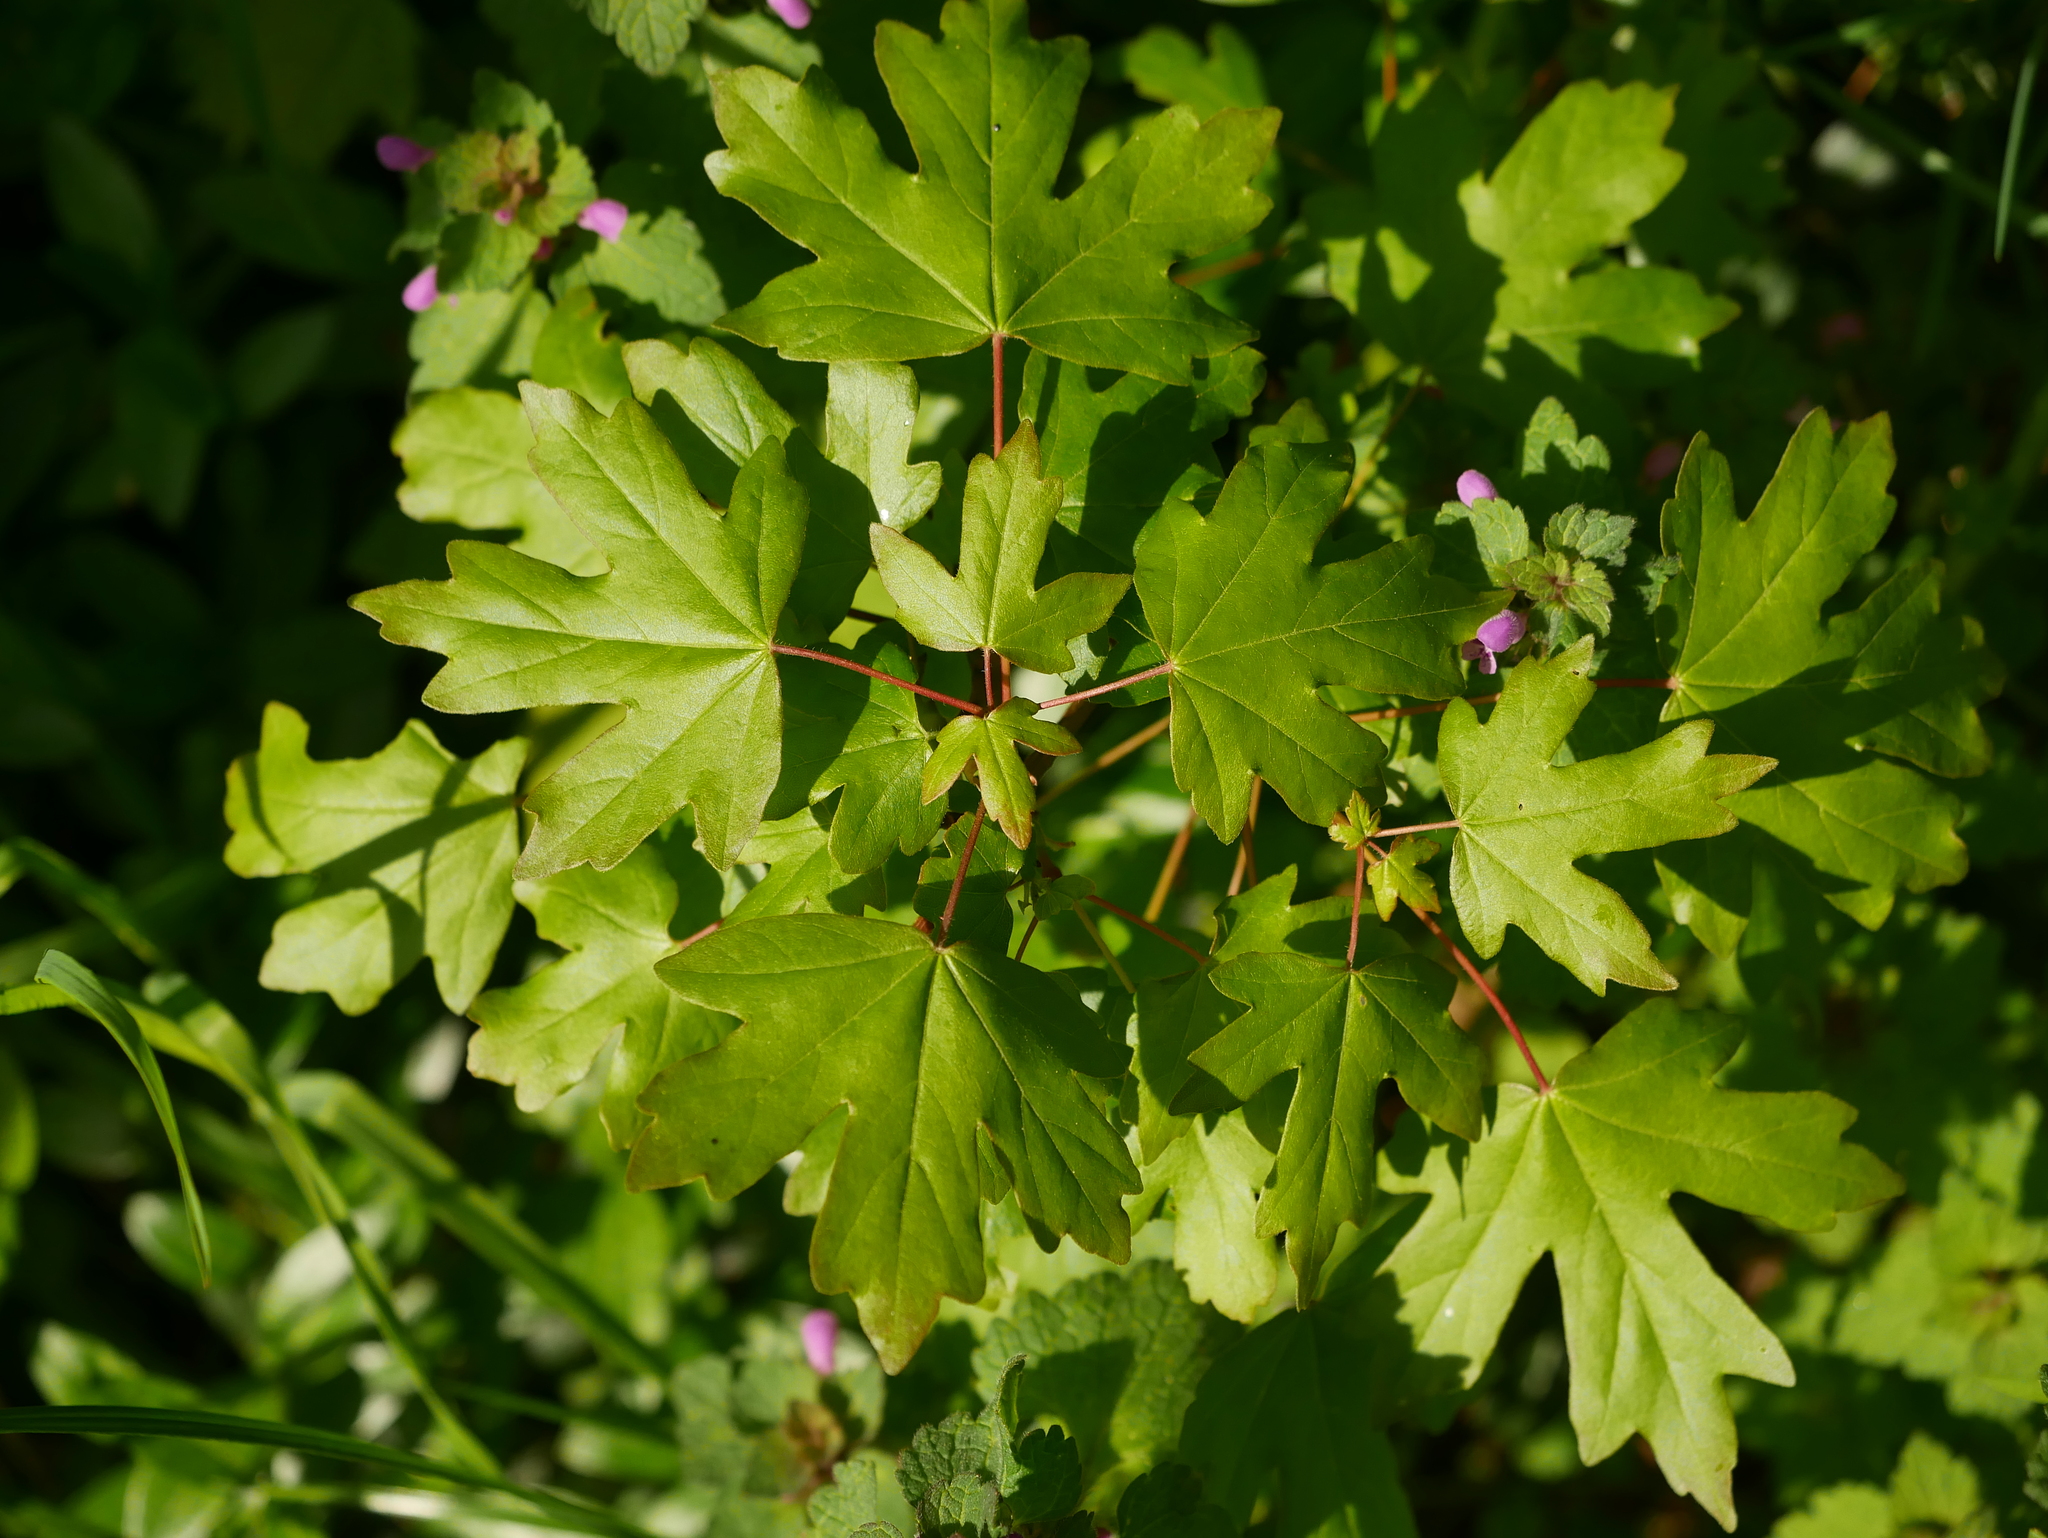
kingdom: Plantae
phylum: Tracheophyta
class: Magnoliopsida
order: Sapindales
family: Sapindaceae
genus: Acer
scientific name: Acer campestre
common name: Field maple
